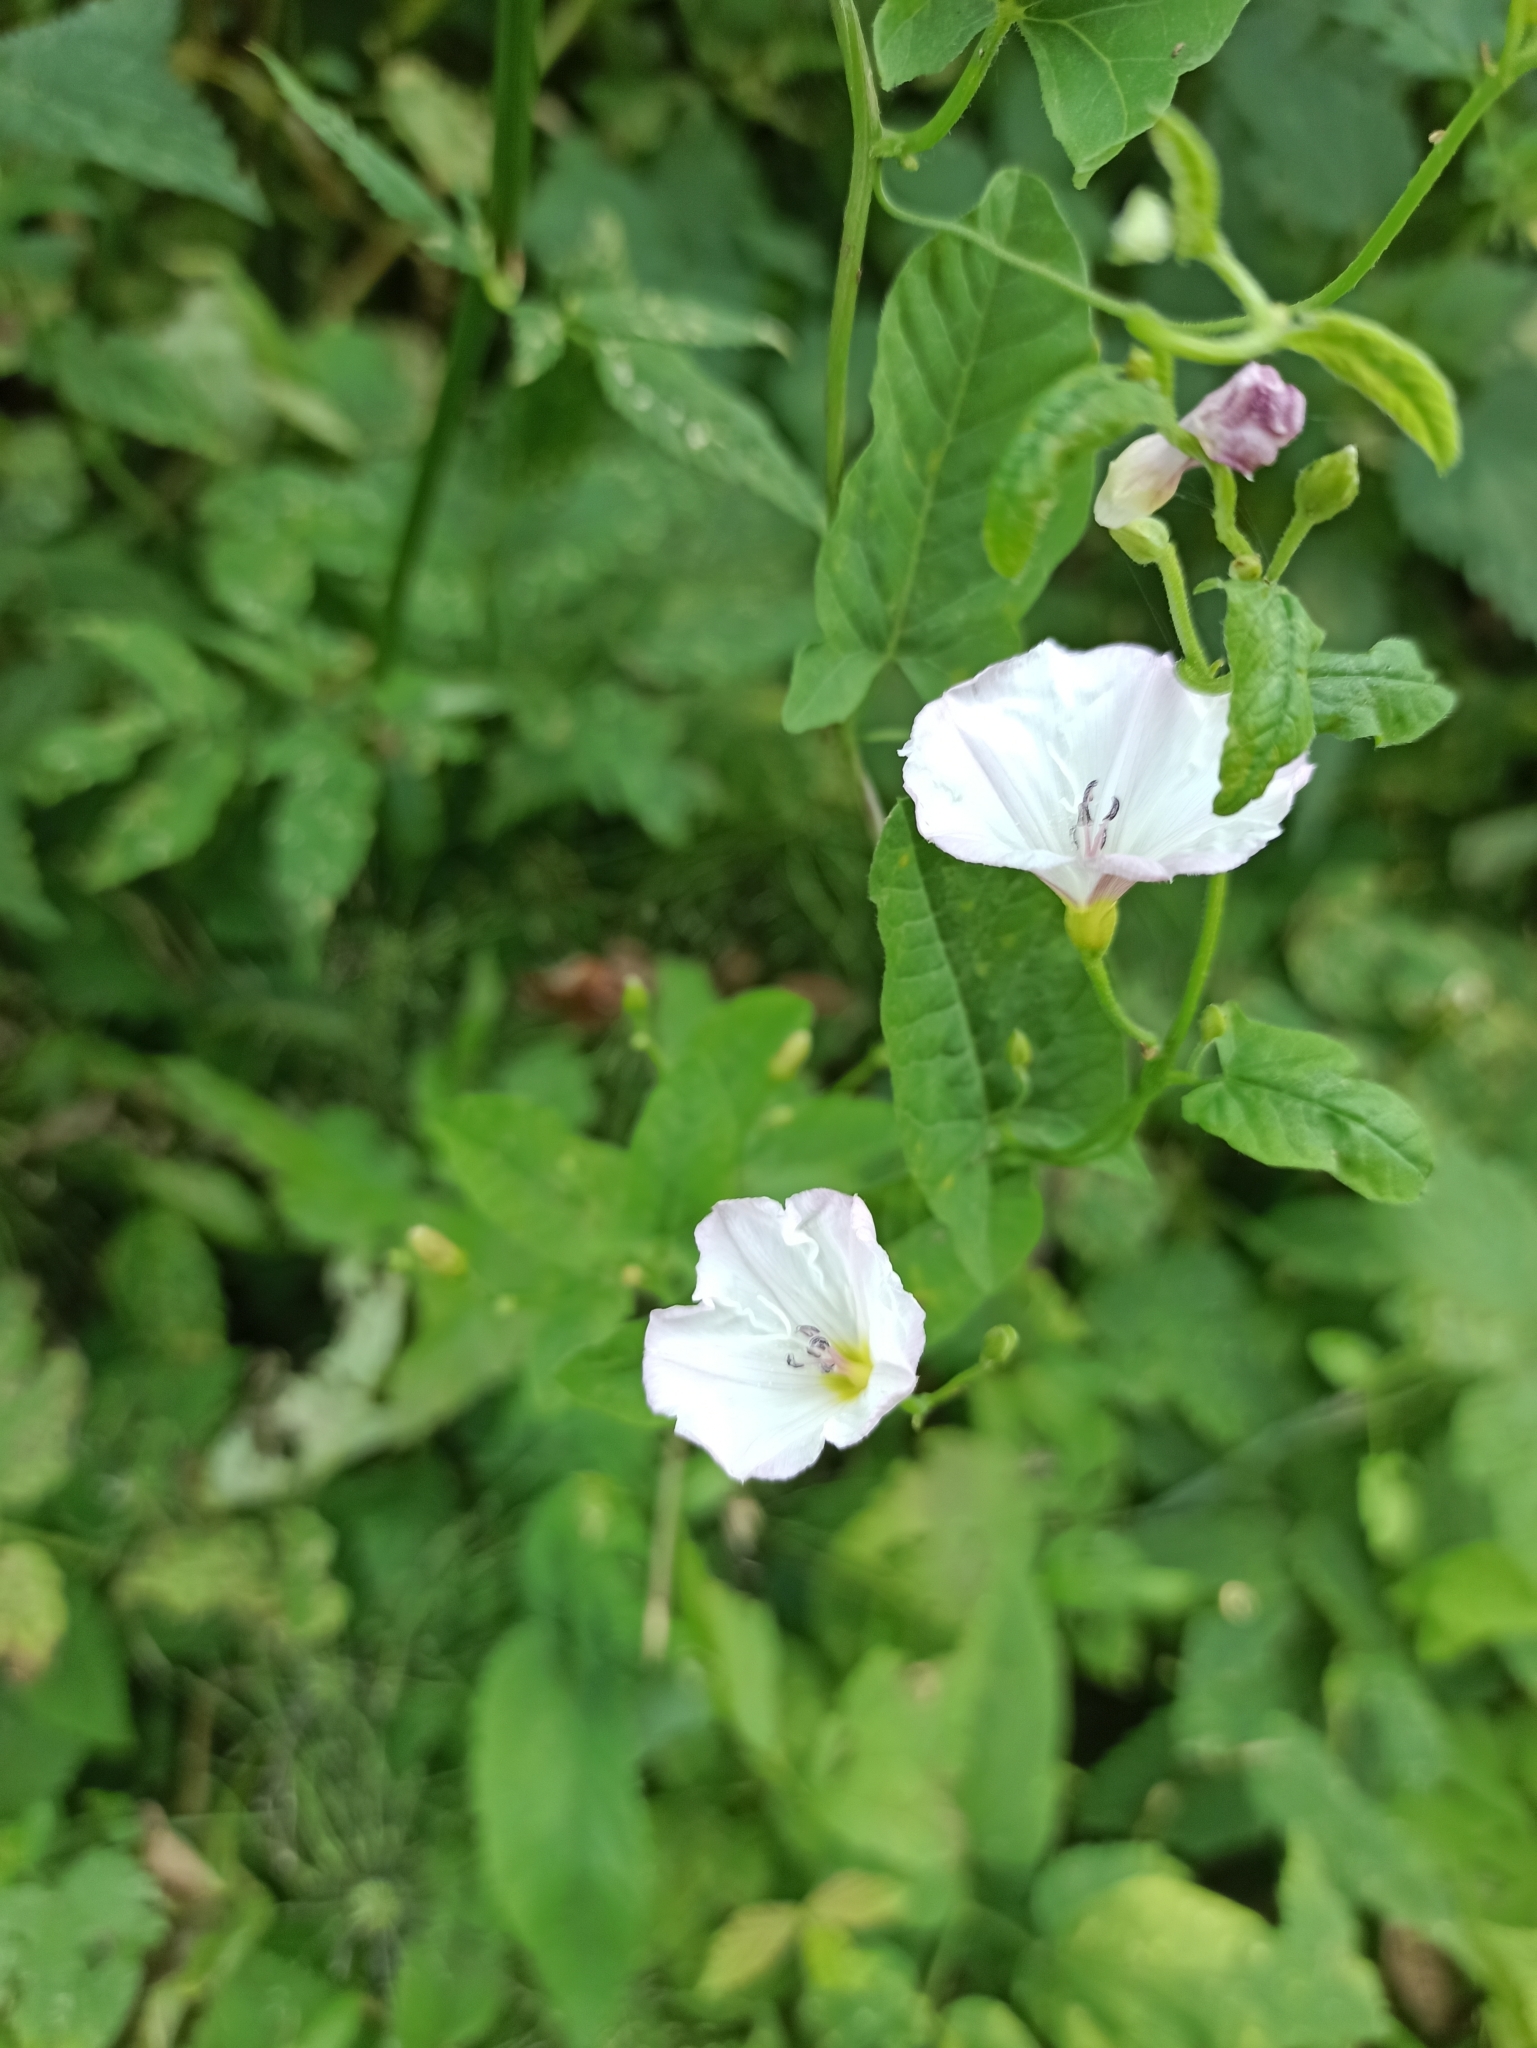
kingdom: Plantae
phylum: Tracheophyta
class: Magnoliopsida
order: Solanales
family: Convolvulaceae
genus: Convolvulus
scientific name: Convolvulus arvensis
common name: Field bindweed
